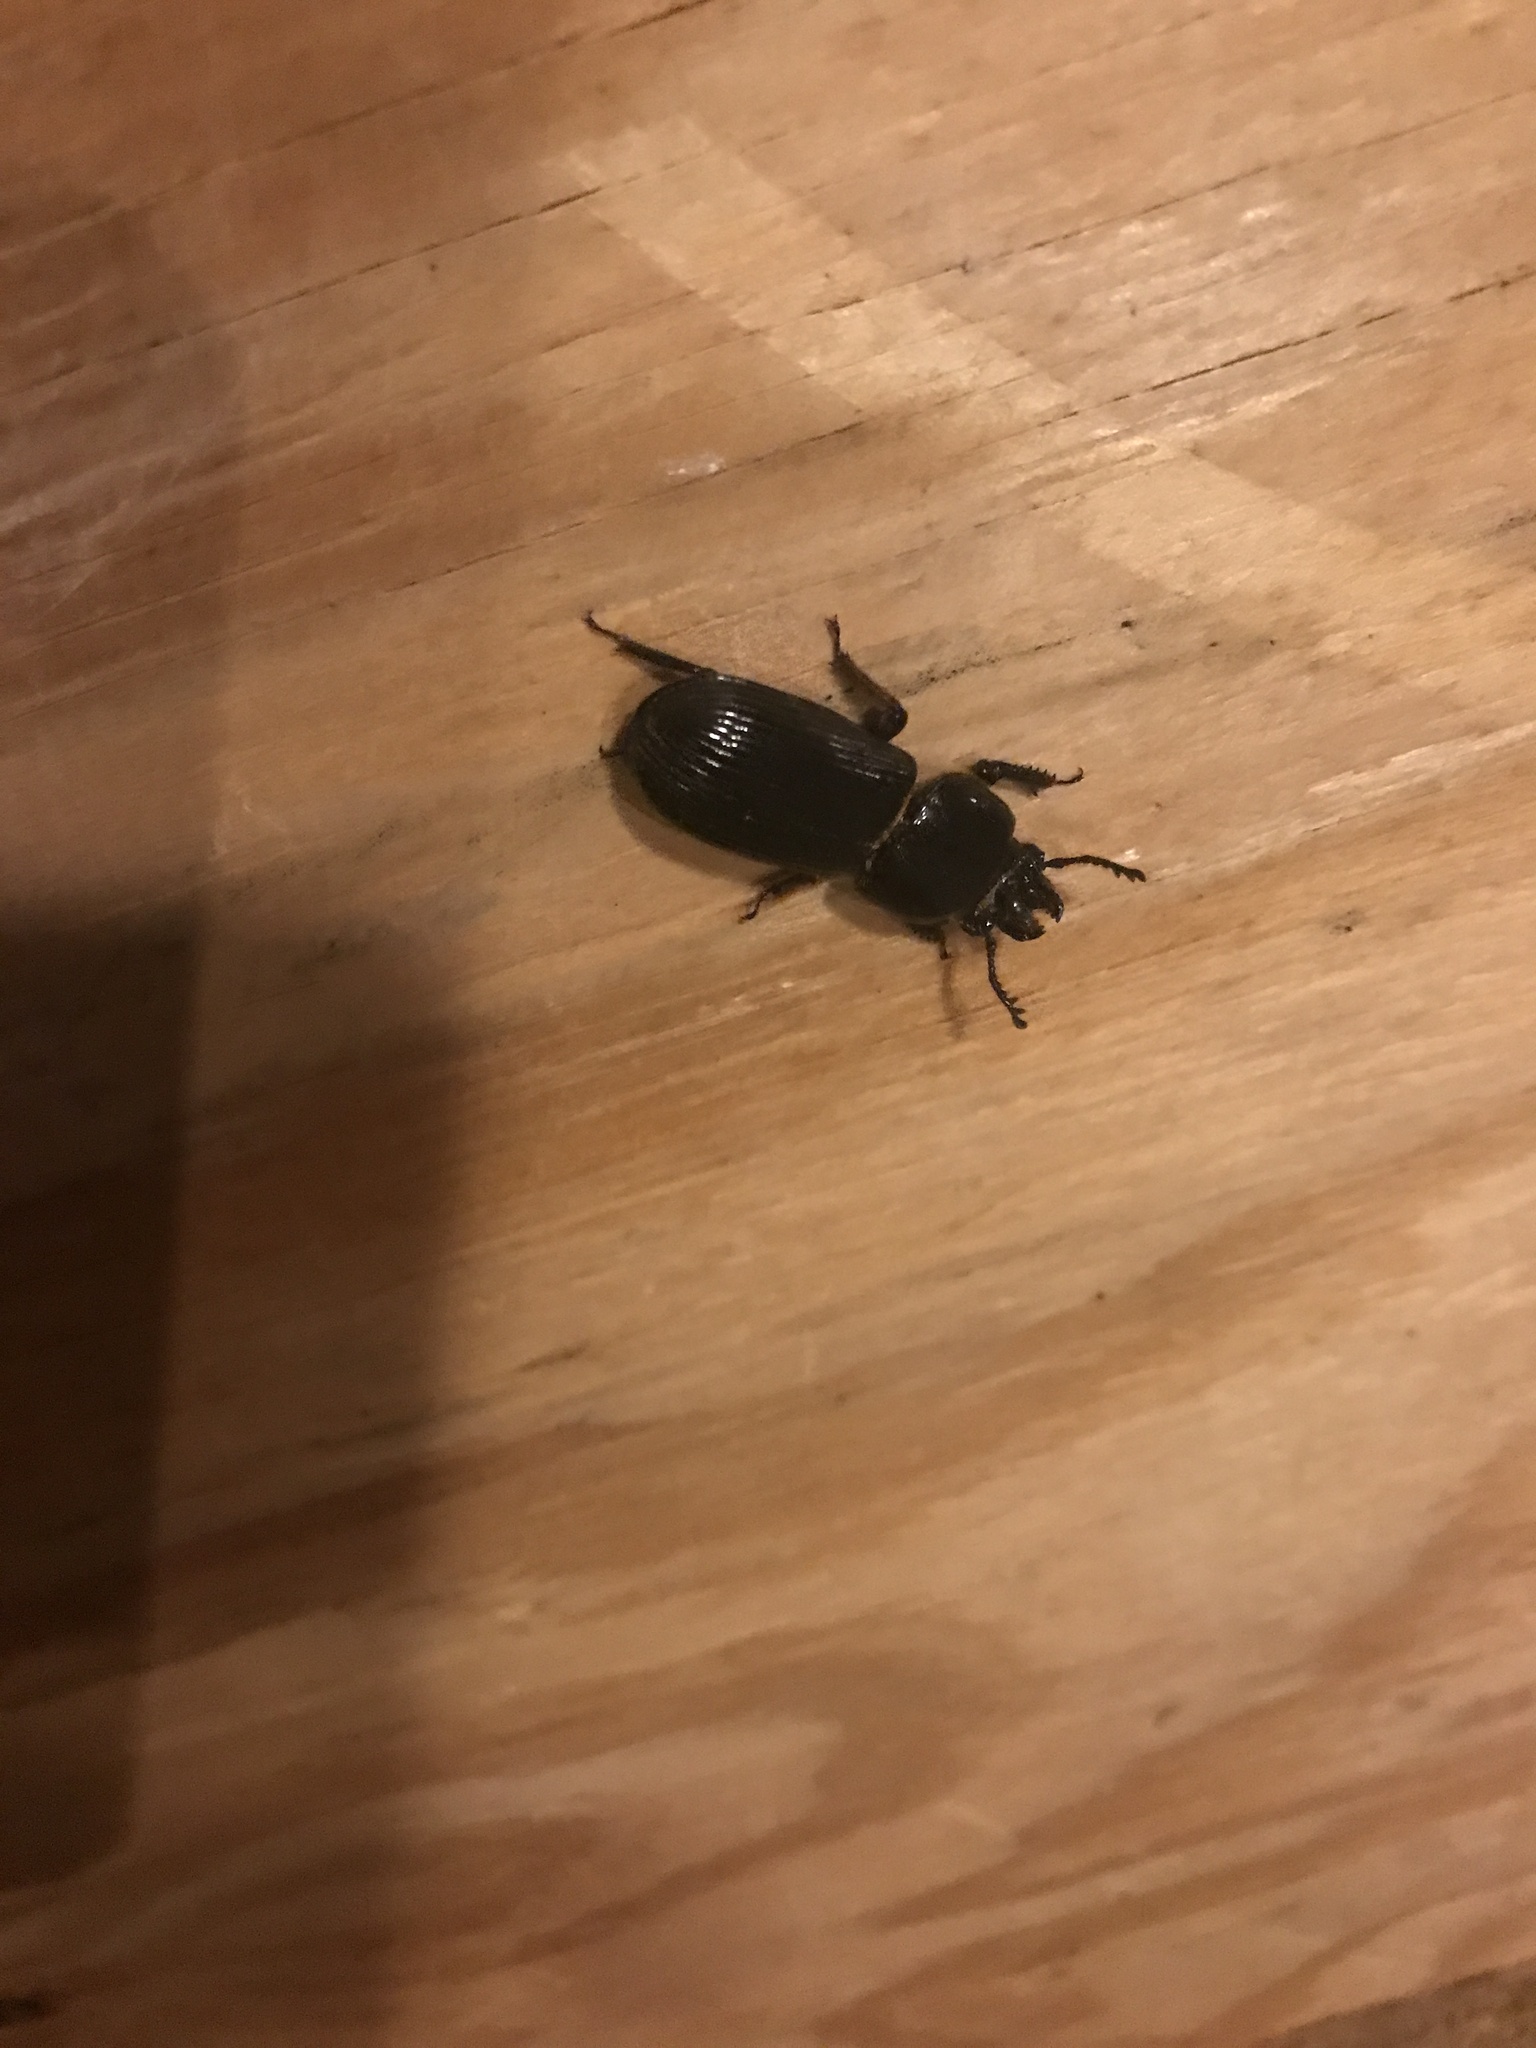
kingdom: Animalia
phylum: Arthropoda
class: Insecta
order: Coleoptera
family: Passalidae
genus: Odontotaenius
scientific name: Odontotaenius disjunctus
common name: Patent leather beetle
